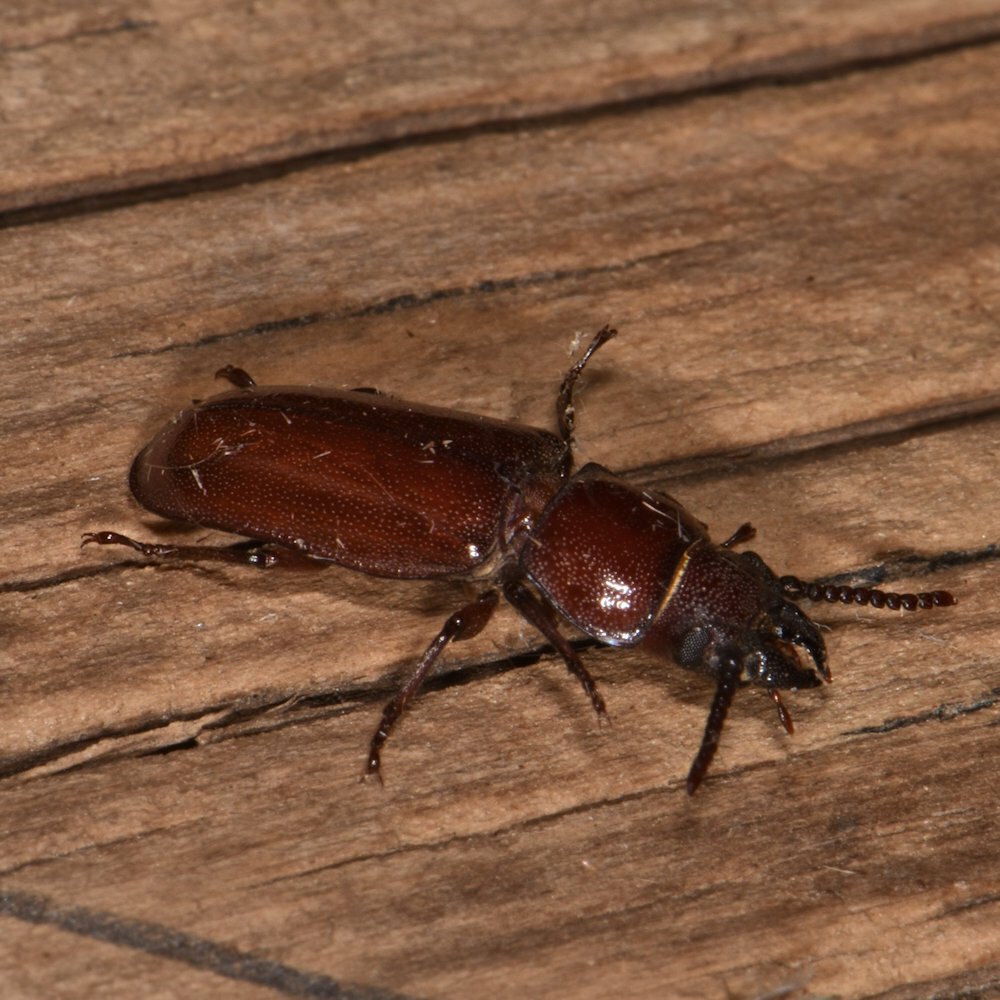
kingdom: Animalia
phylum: Arthropoda
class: Insecta
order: Coleoptera
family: Cerambycidae
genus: Neandra
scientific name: Neandra brunnea
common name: Pole borer
